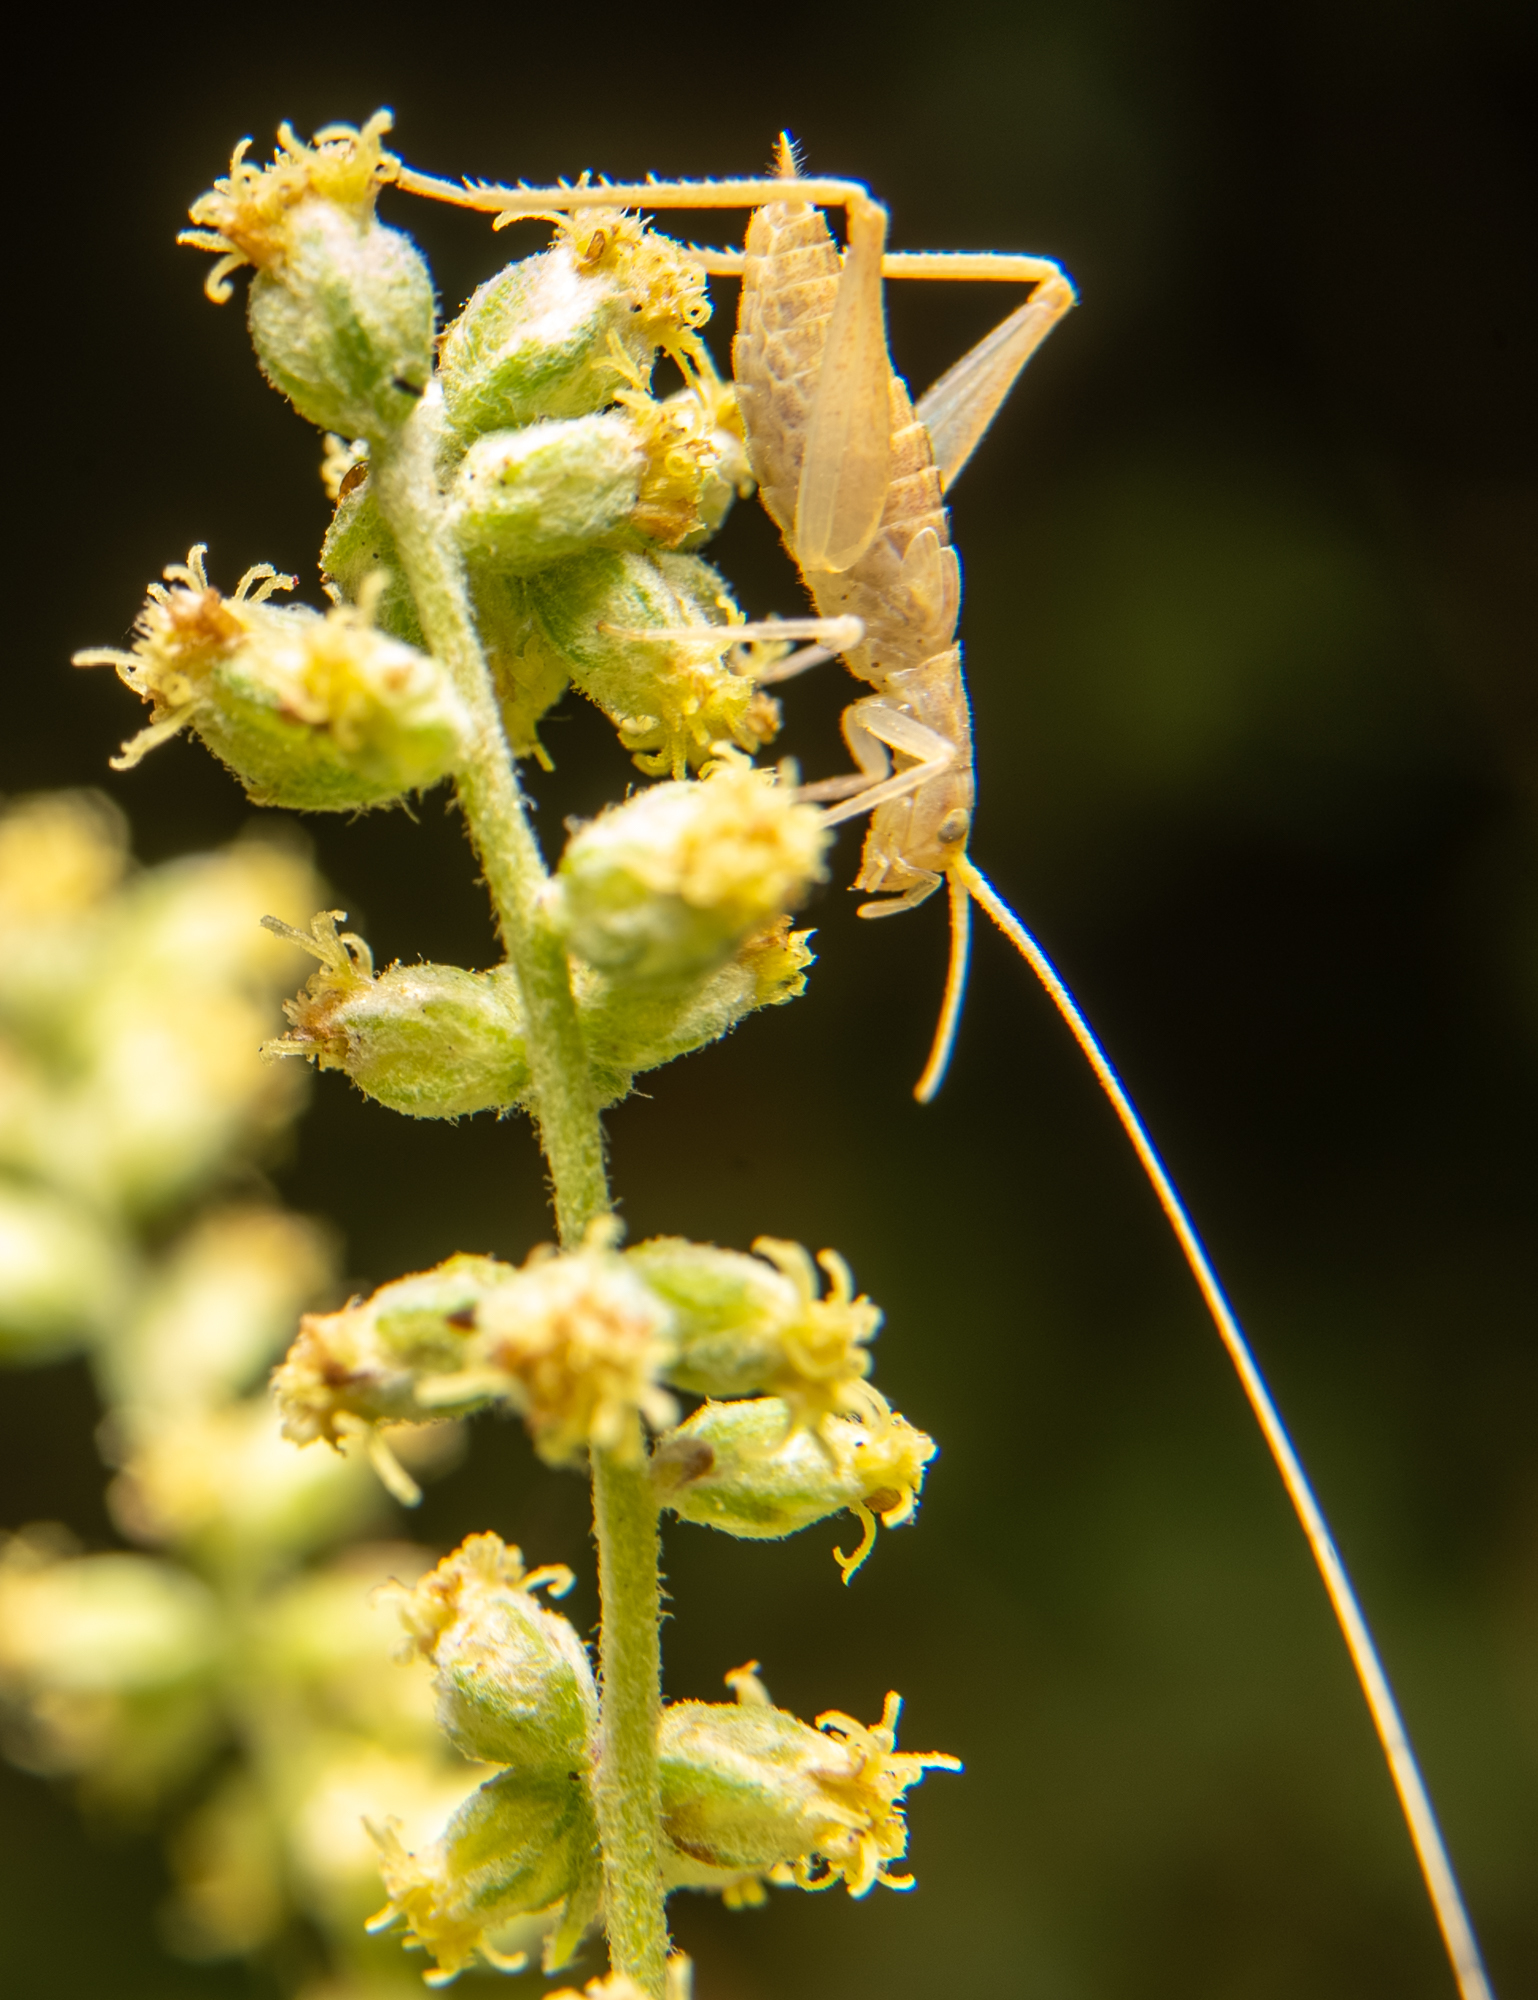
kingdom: Animalia
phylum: Arthropoda
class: Insecta
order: Orthoptera
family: Gryllidae
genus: Oecanthus
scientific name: Oecanthus californicus
